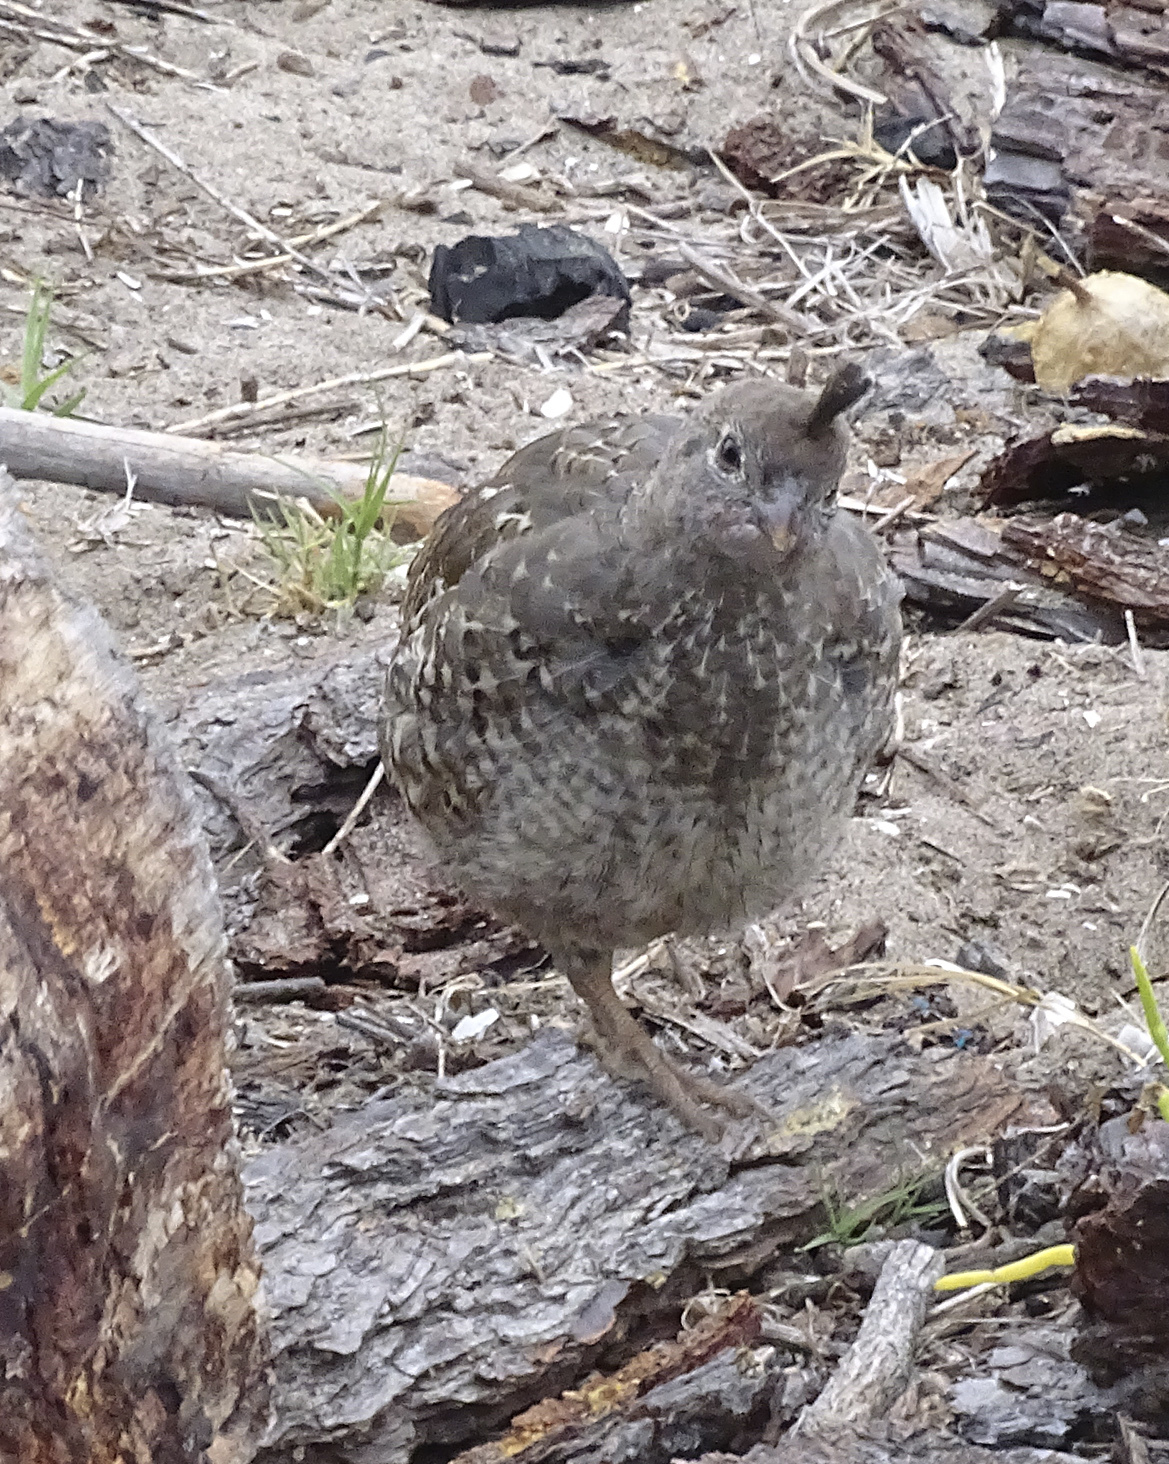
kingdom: Animalia
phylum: Chordata
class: Aves
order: Galliformes
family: Odontophoridae
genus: Callipepla
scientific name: Callipepla californica
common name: California quail
